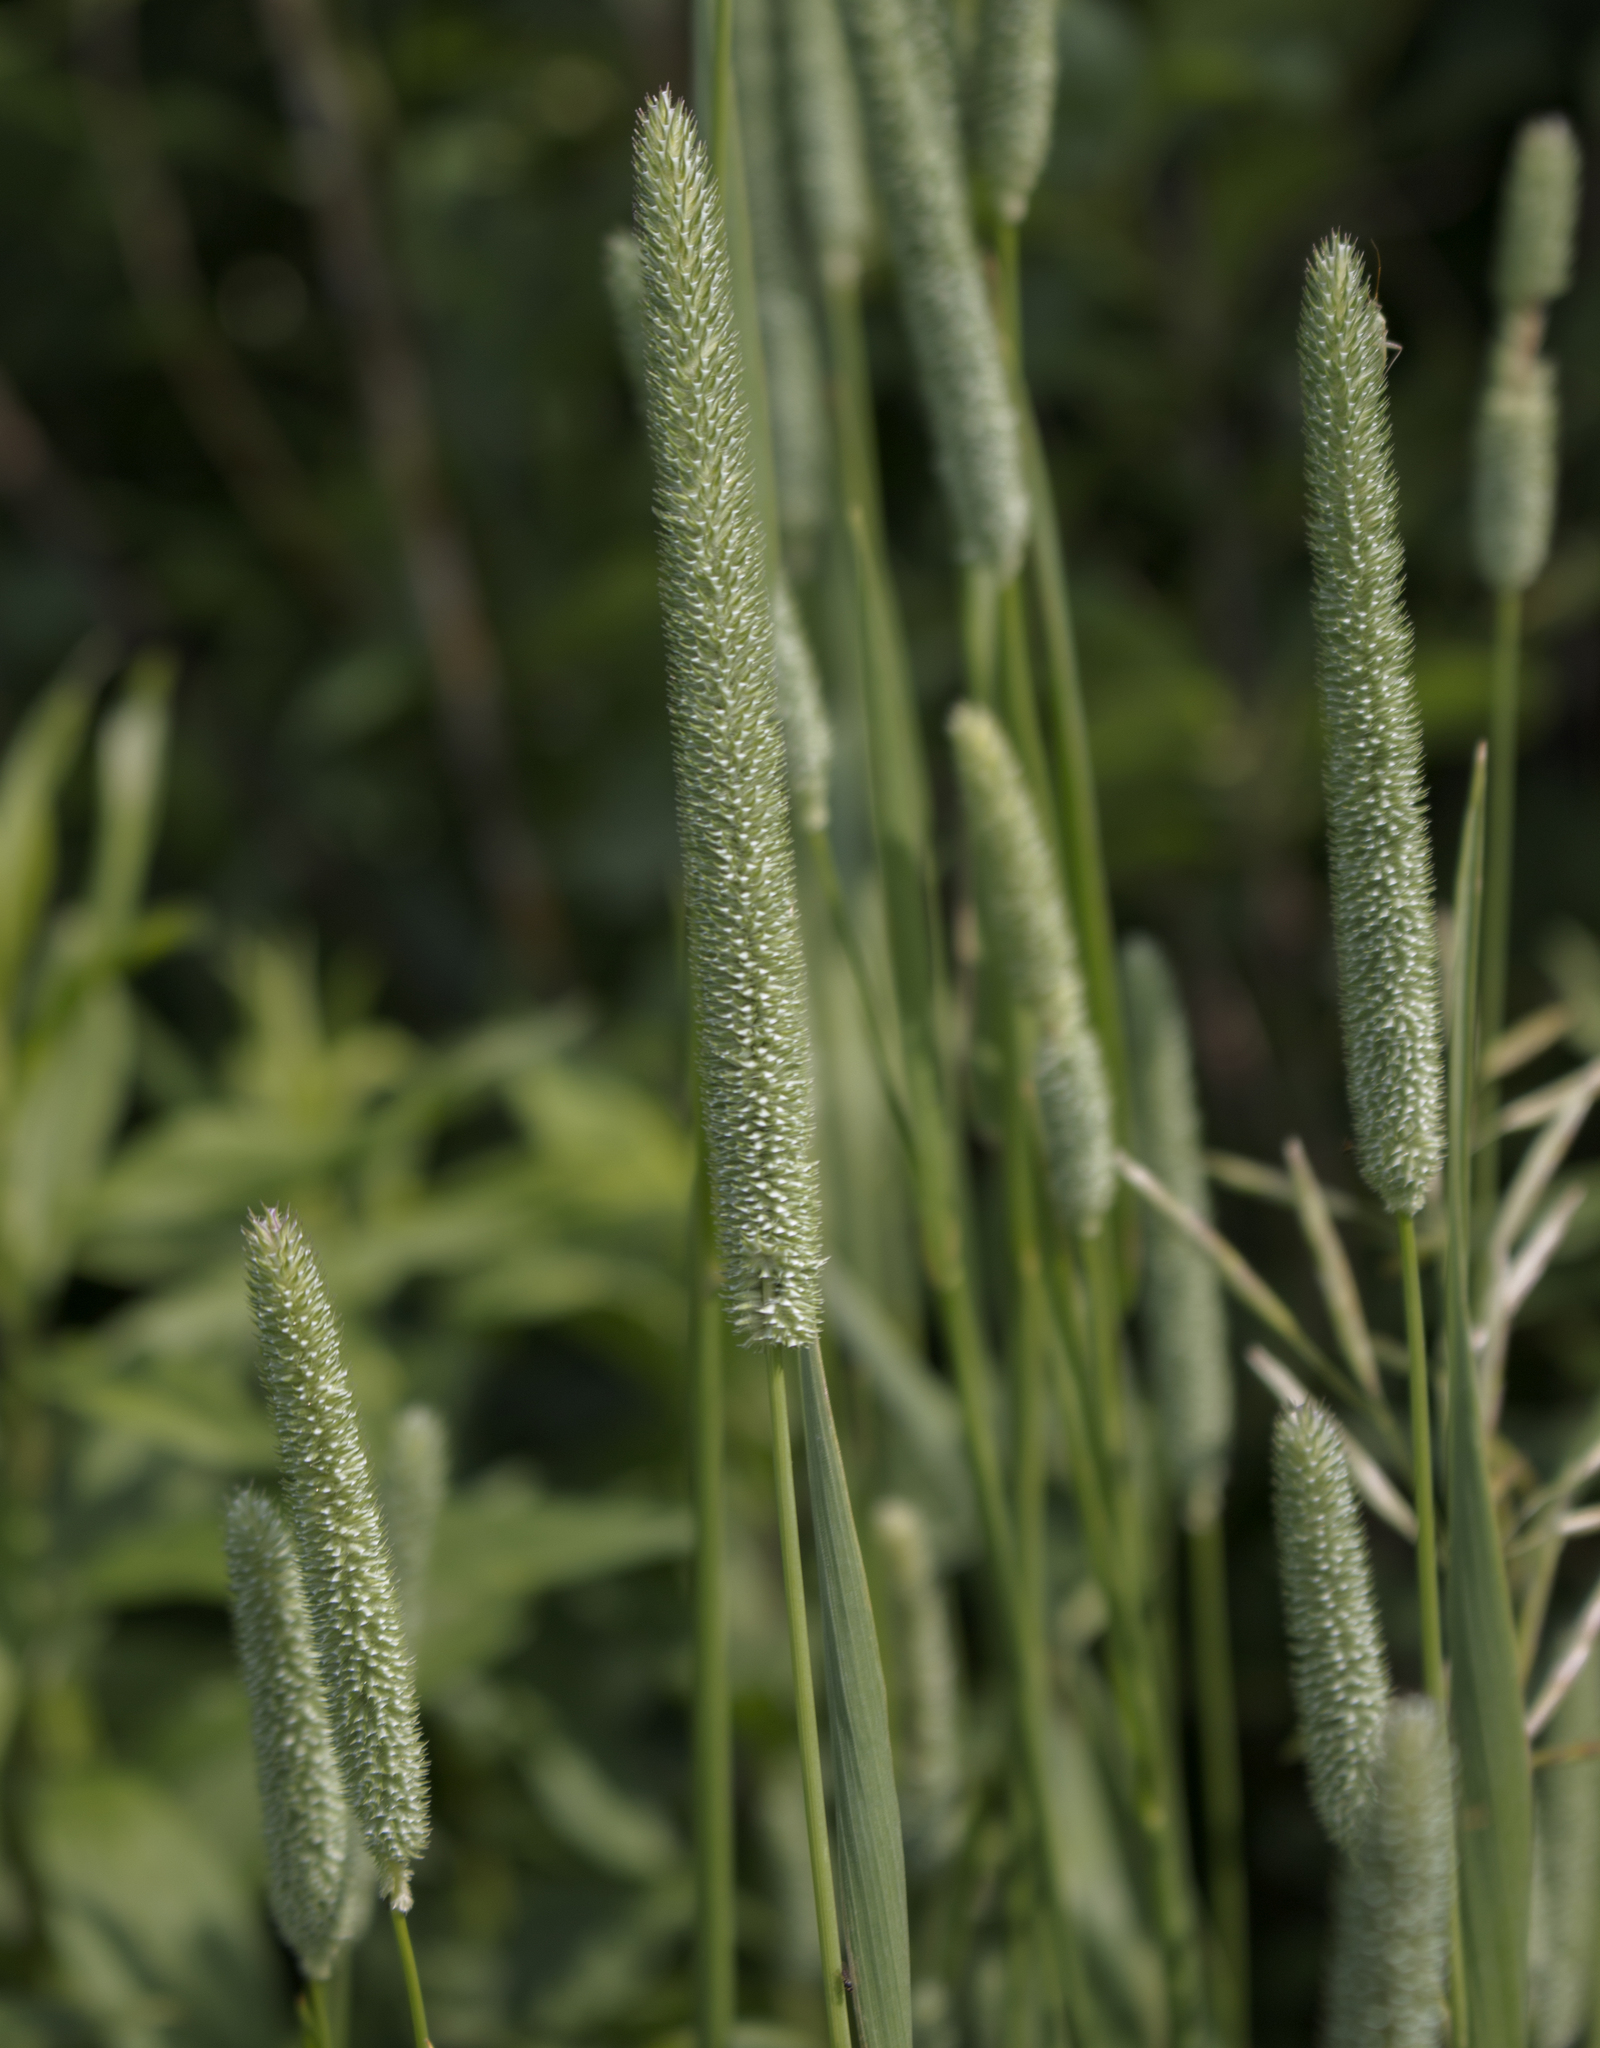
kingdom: Plantae
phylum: Tracheophyta
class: Liliopsida
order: Poales
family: Poaceae
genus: Phleum
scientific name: Phleum pratense
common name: Timothy grass
